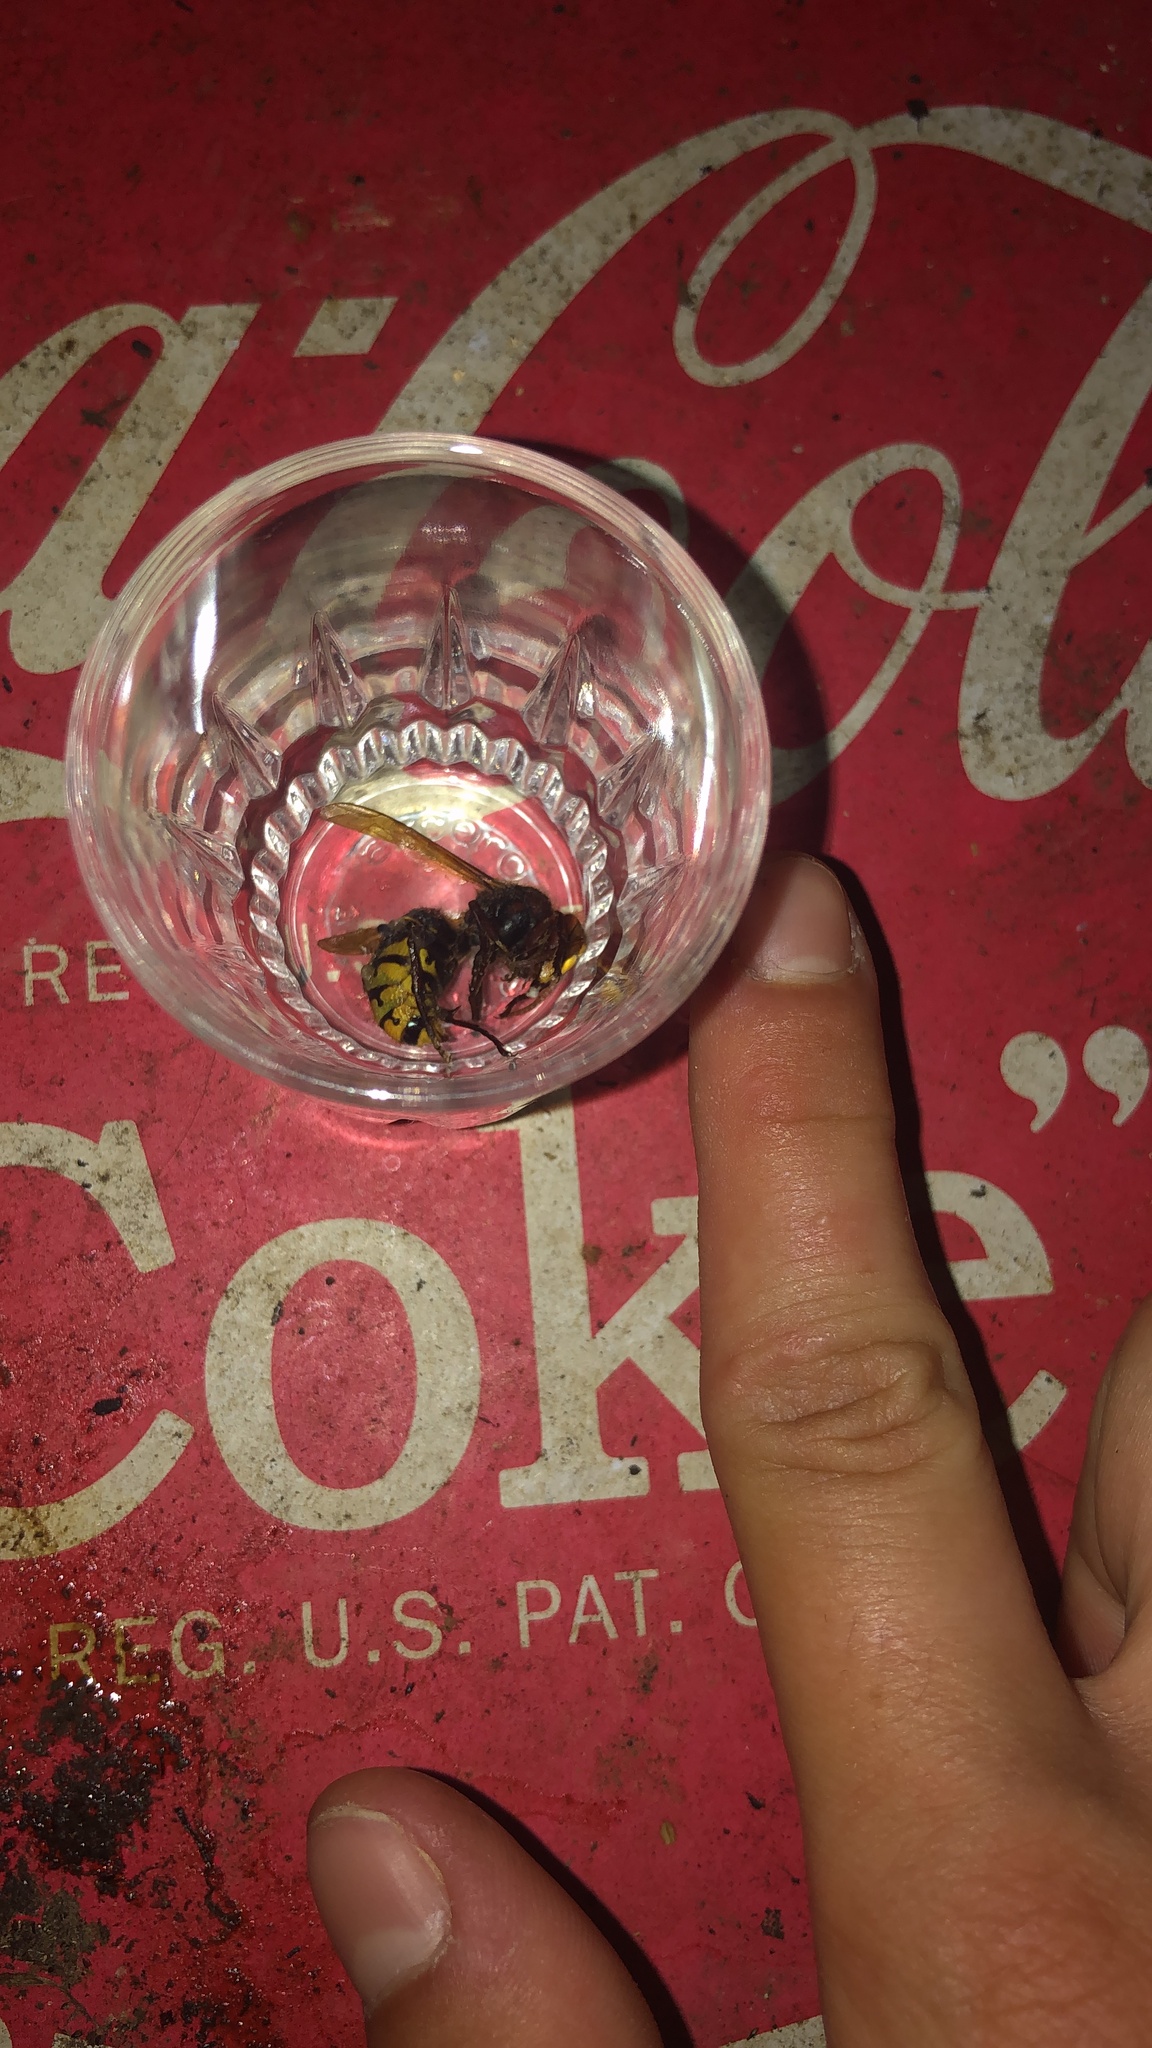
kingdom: Animalia
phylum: Arthropoda
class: Insecta
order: Hymenoptera
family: Vespidae
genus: Vespa
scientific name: Vespa crabro
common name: Hornet
